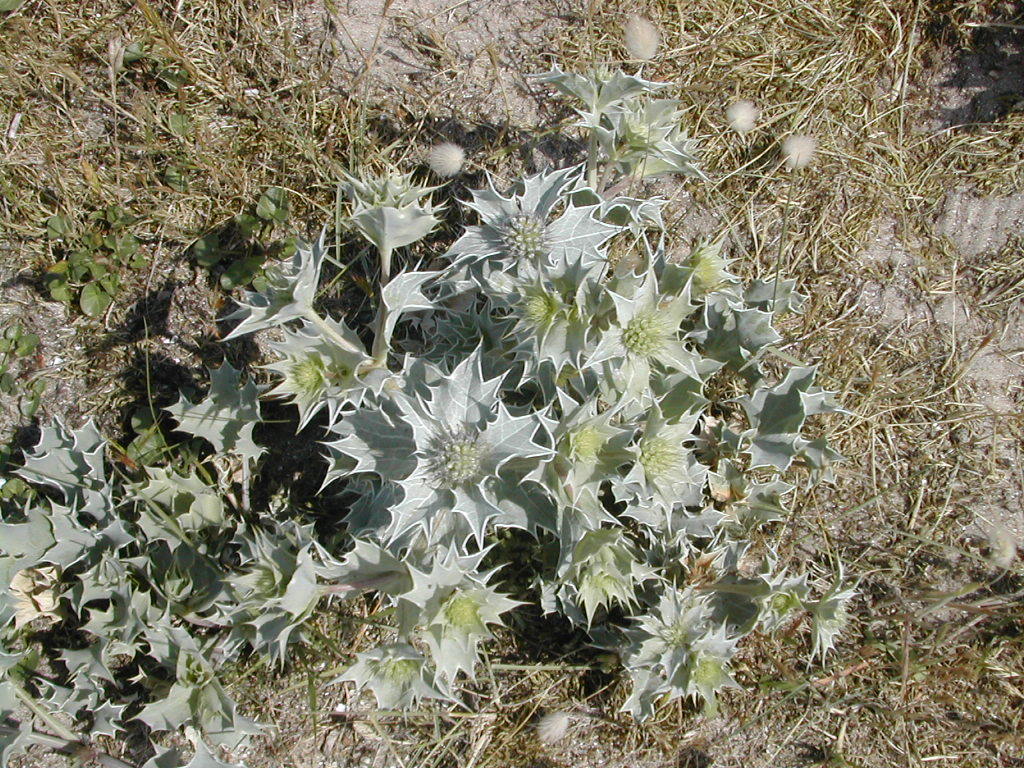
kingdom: Plantae
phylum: Tracheophyta
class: Magnoliopsida
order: Apiales
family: Apiaceae
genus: Eryngium
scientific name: Eryngium maritimum
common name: Sea-holly
